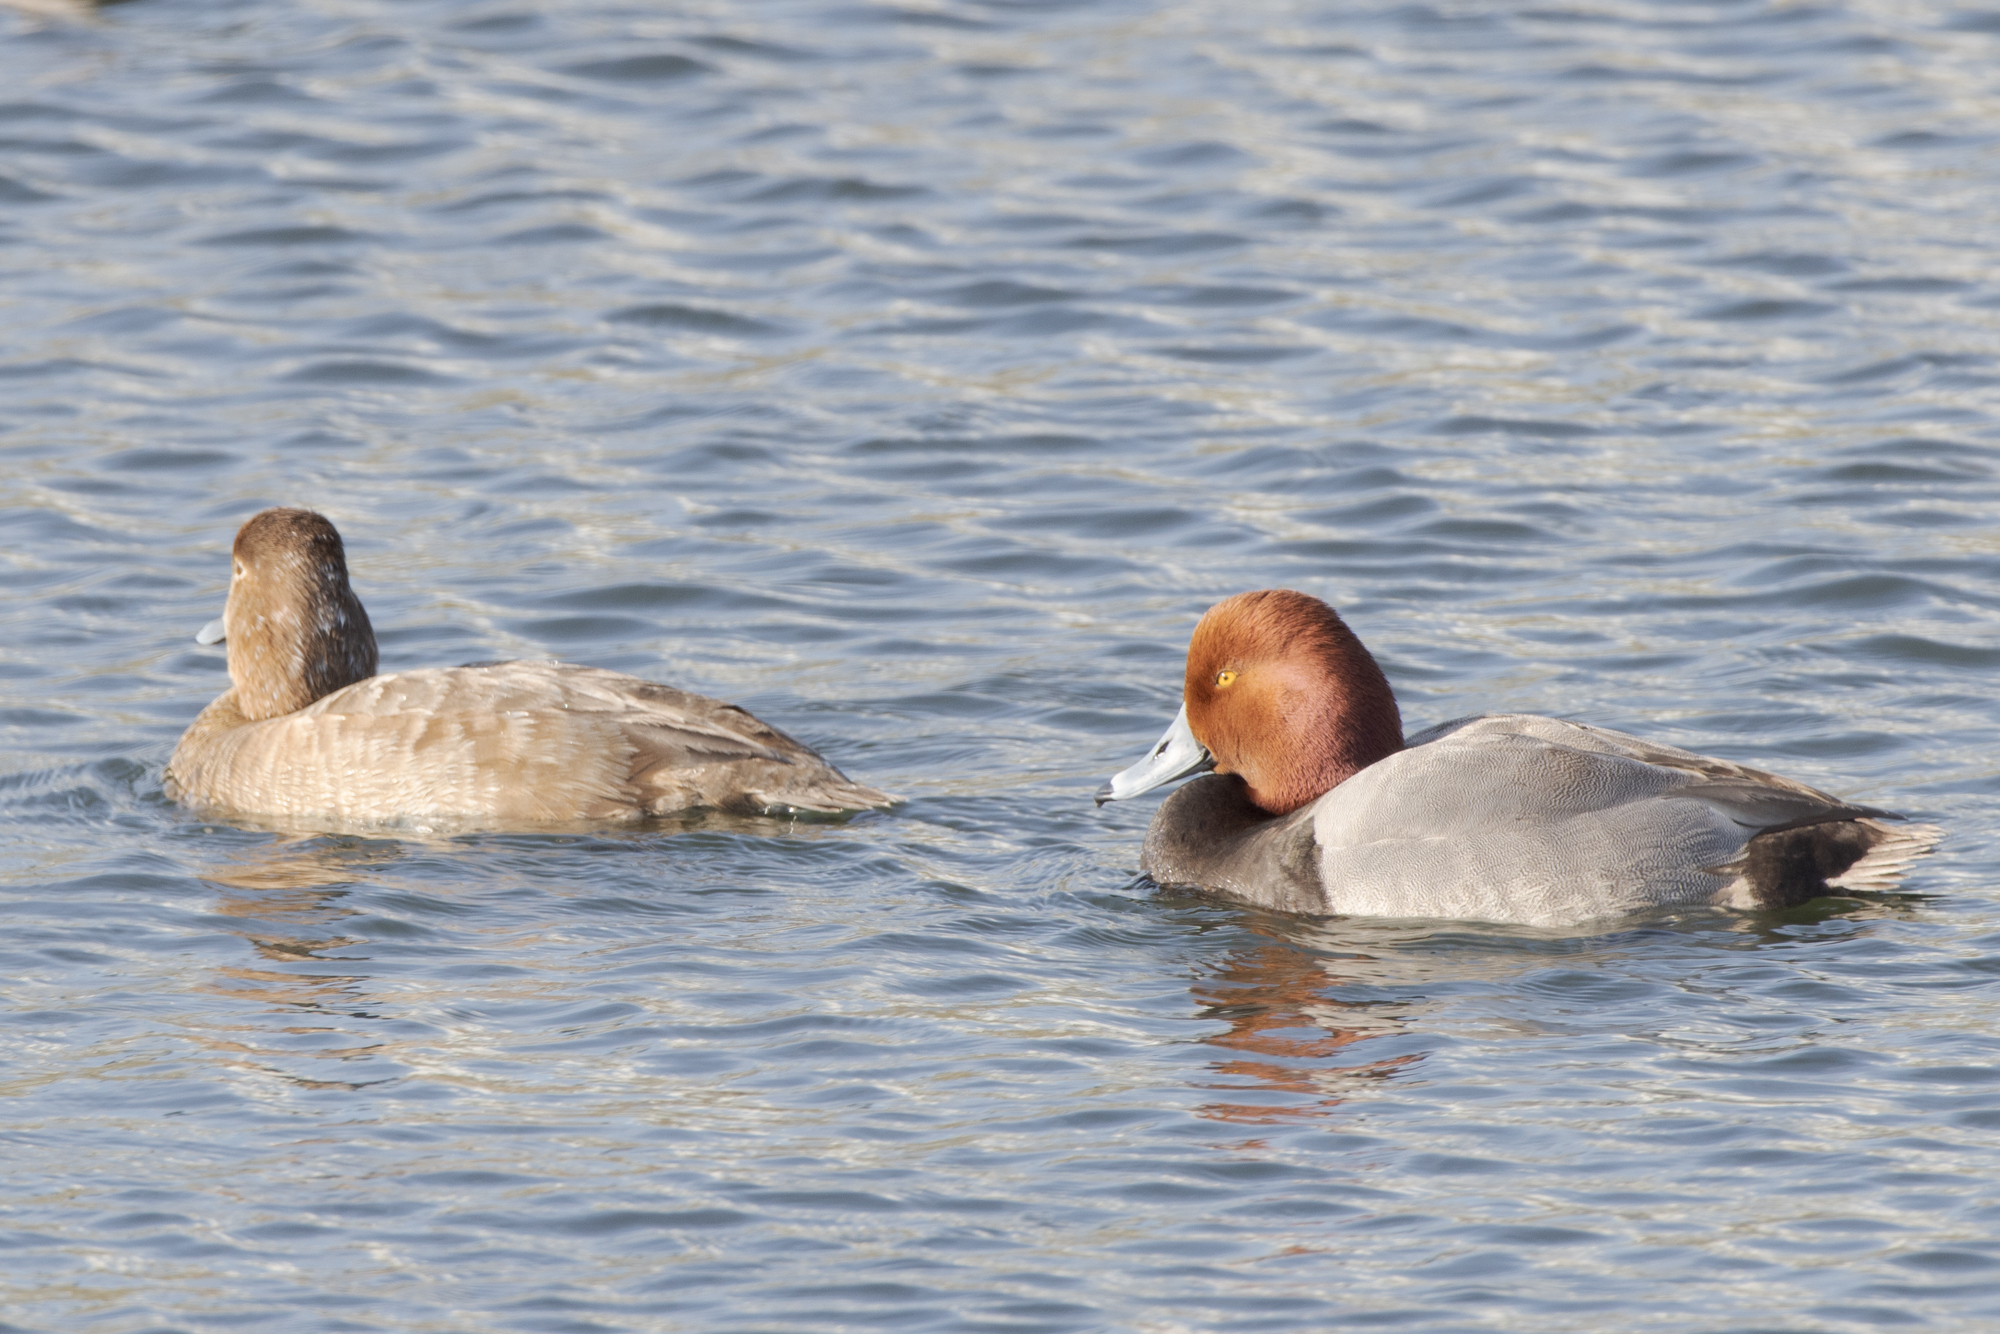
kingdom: Animalia
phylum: Chordata
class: Aves
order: Anseriformes
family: Anatidae
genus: Aythya
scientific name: Aythya americana
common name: Redhead
